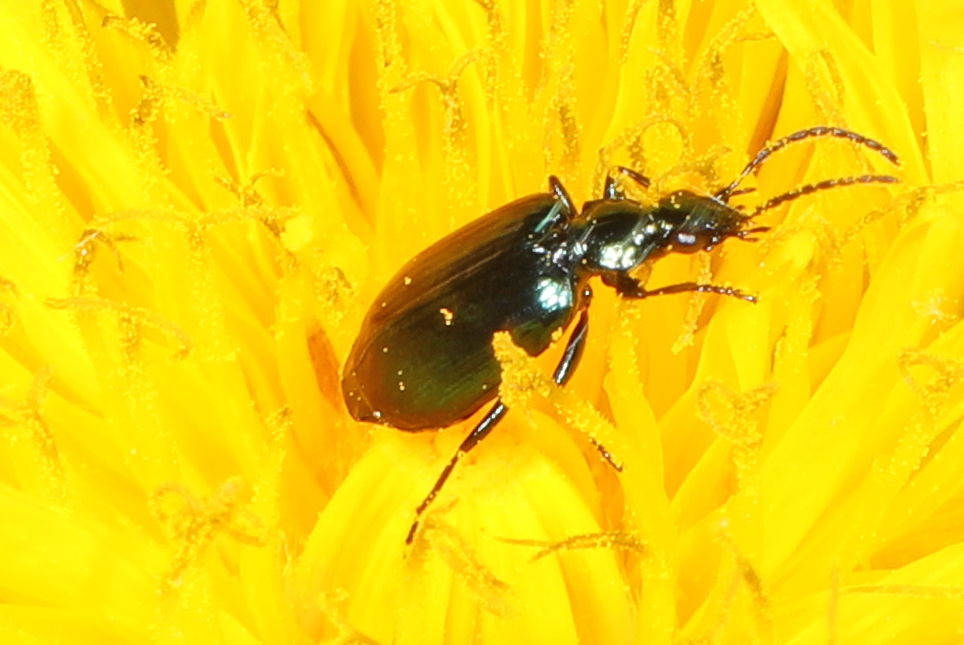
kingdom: Animalia
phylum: Arthropoda
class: Insecta
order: Coleoptera
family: Carabidae
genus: Lebia
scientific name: Lebia viridis
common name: Flower lebia beetle
